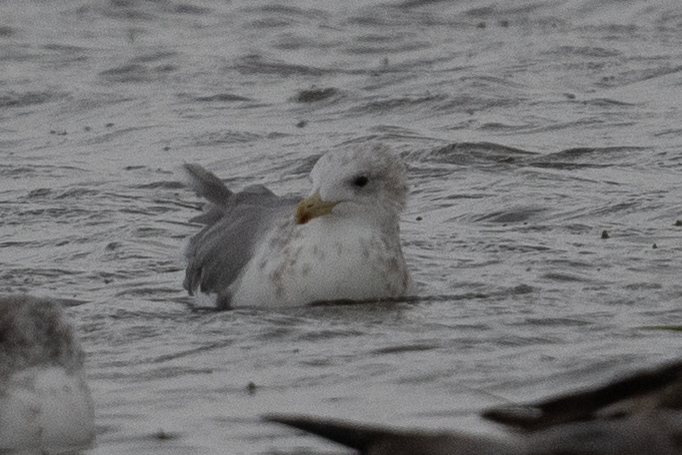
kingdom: Animalia
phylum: Chordata
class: Aves
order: Charadriiformes
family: Laridae
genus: Larus
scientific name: Larus californicus
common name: California gull
